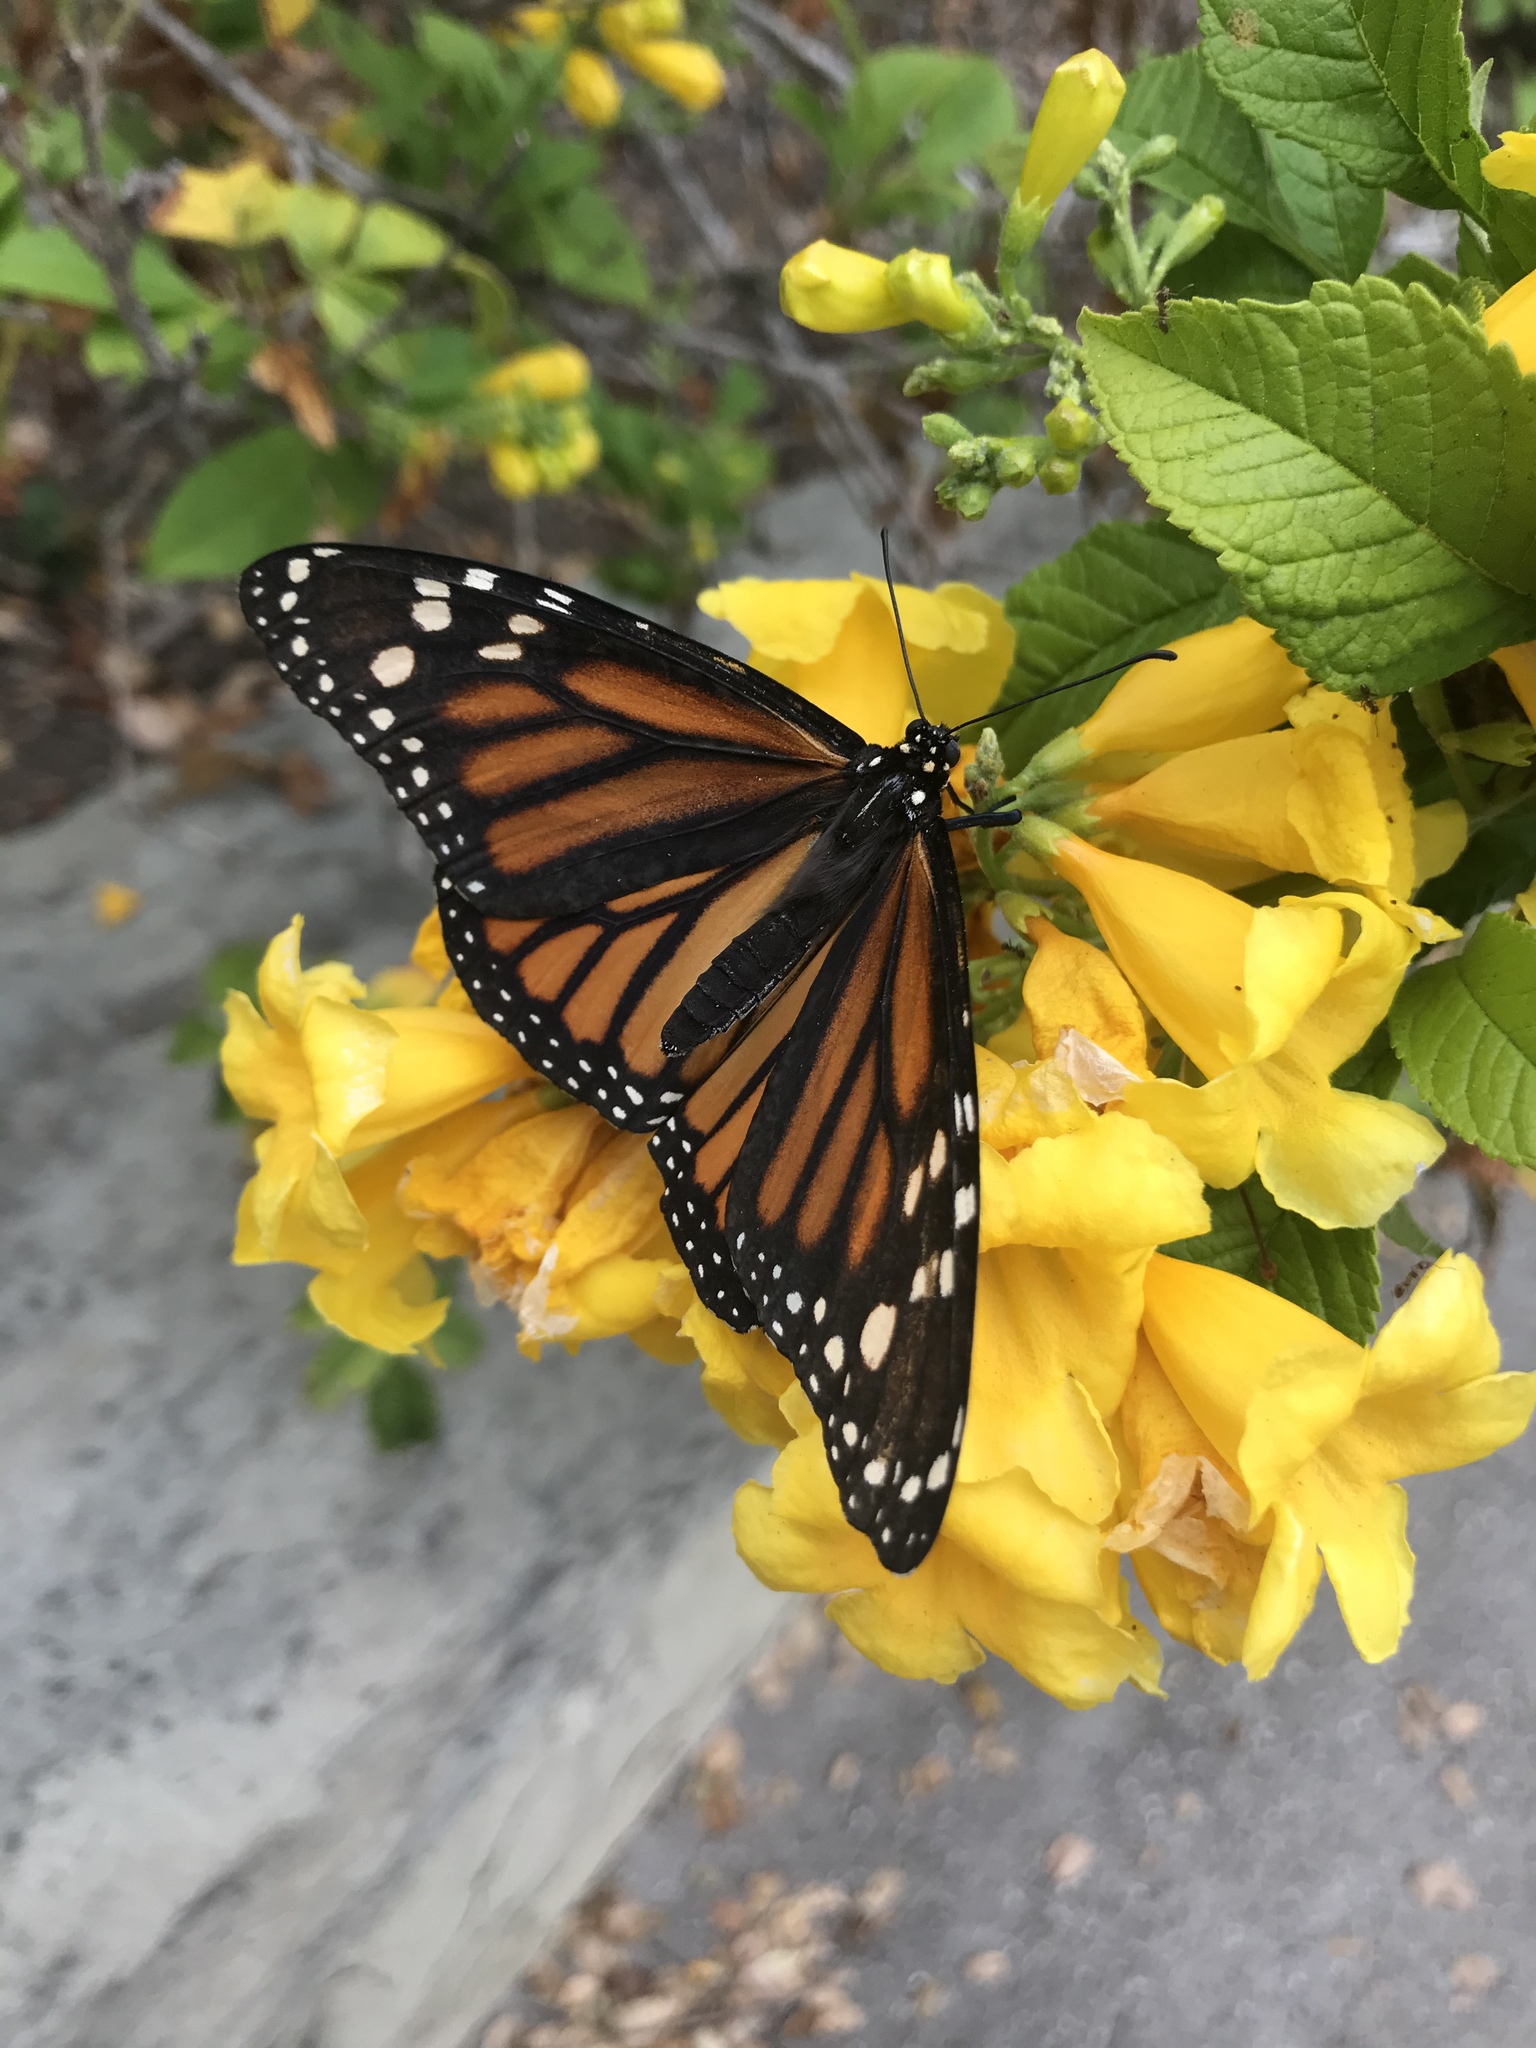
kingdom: Animalia
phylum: Arthropoda
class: Insecta
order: Lepidoptera
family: Nymphalidae
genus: Danaus
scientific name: Danaus plexippus
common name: Monarch
